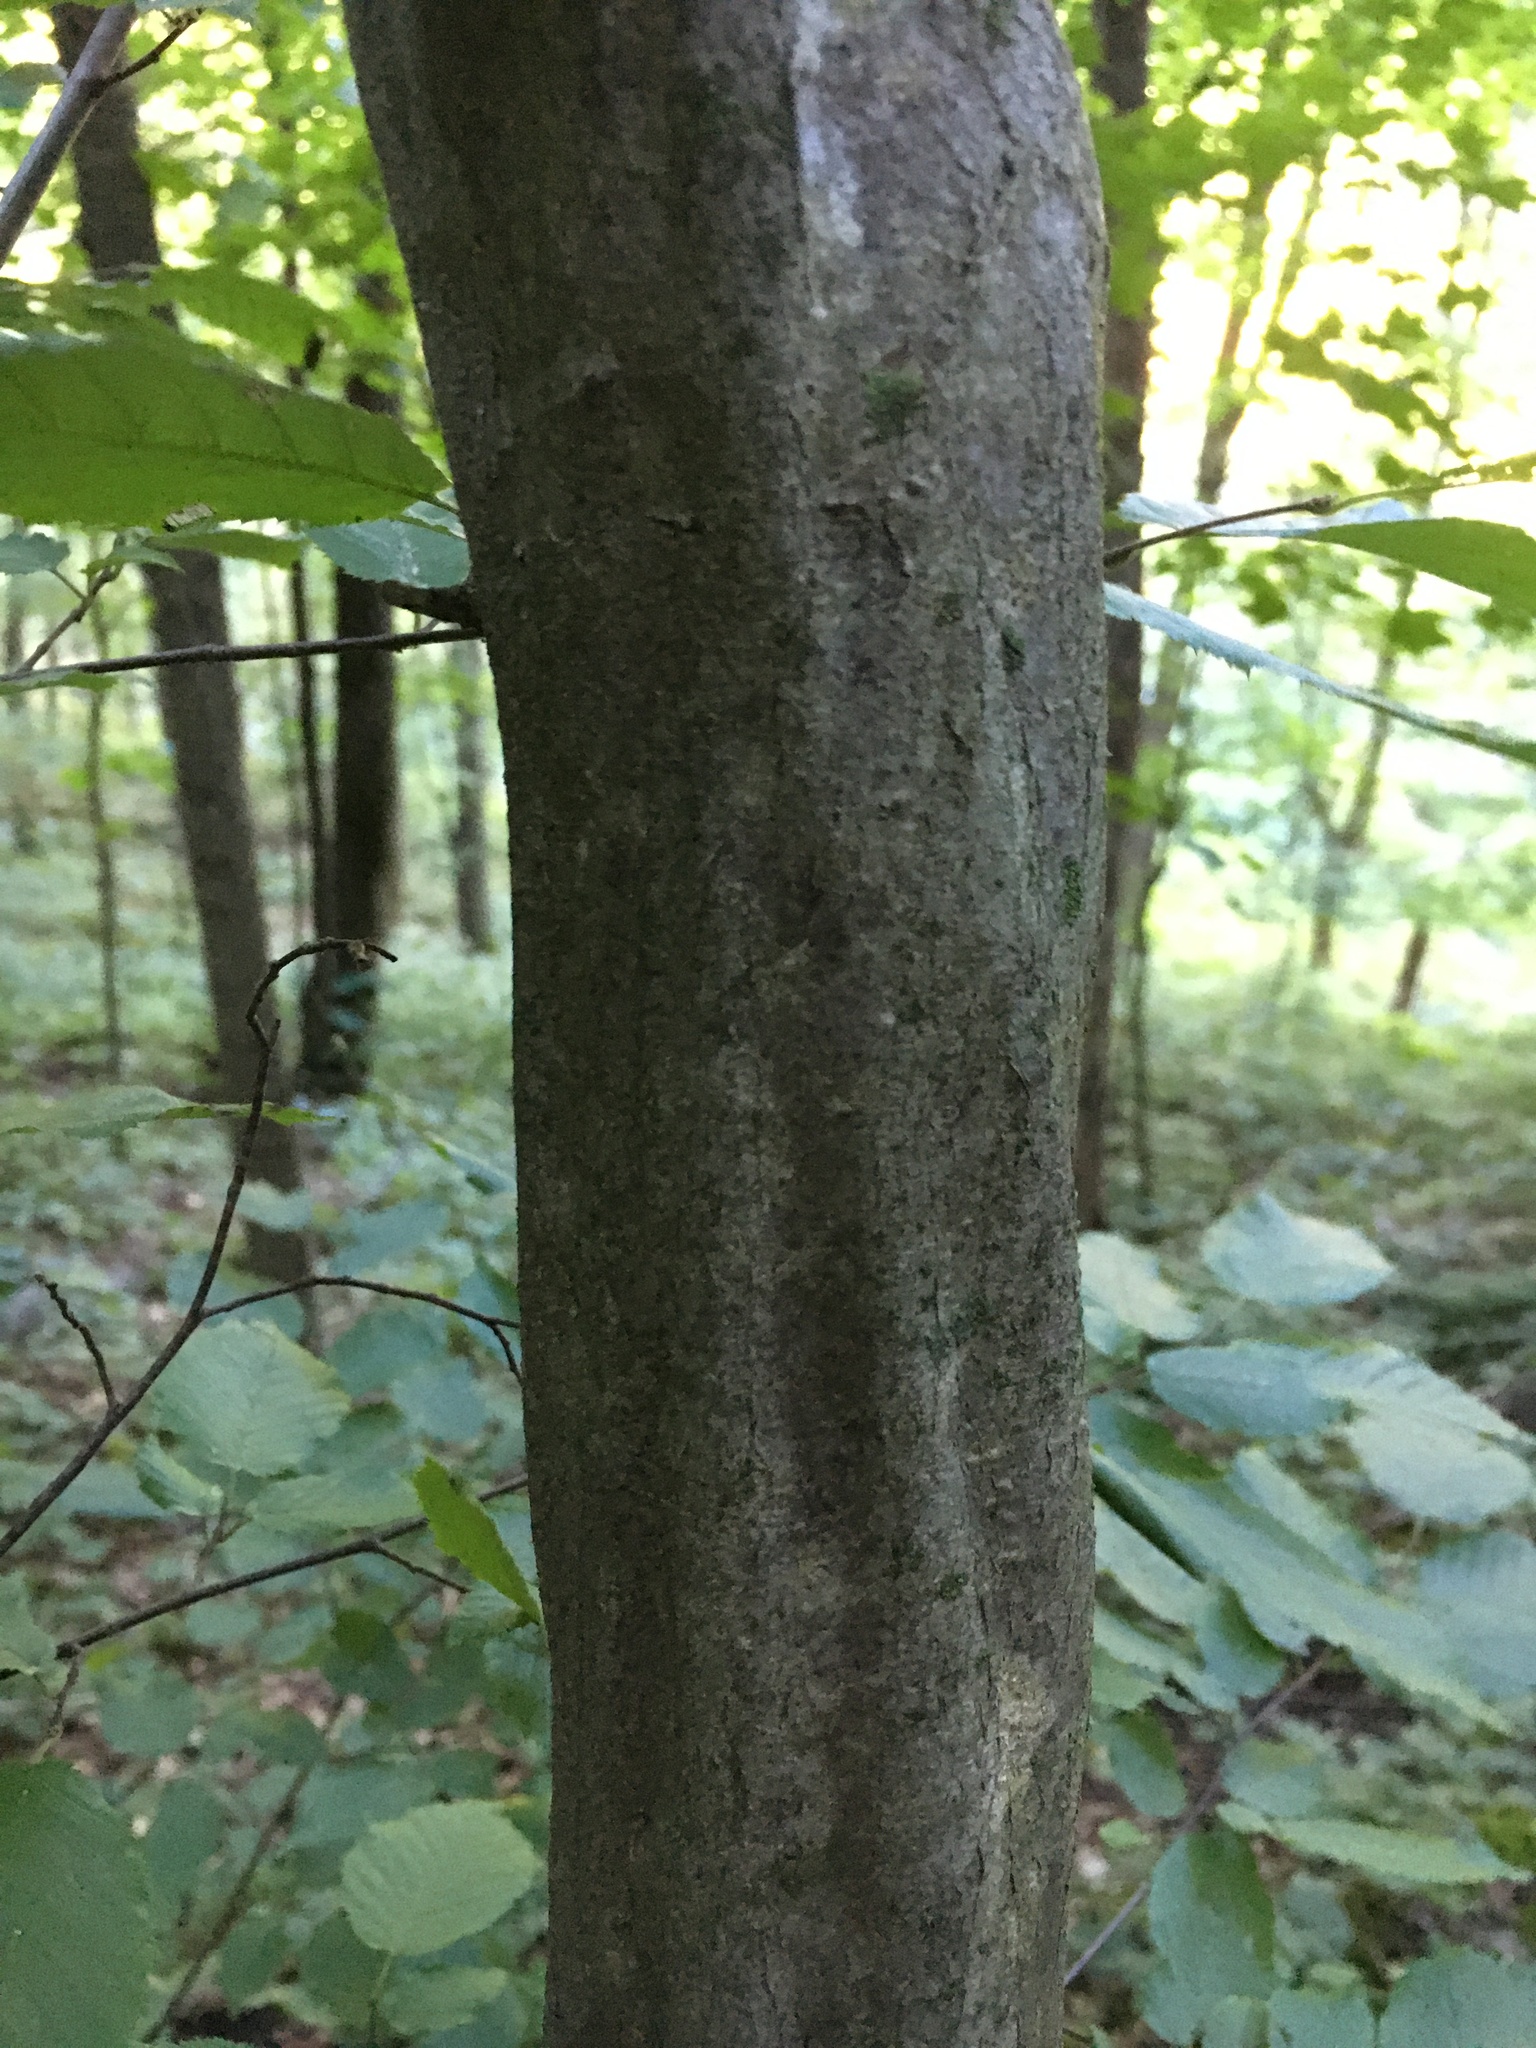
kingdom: Plantae
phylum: Tracheophyta
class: Magnoliopsida
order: Fagales
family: Betulaceae
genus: Carpinus
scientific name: Carpinus caroliniana
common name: American hornbeam
